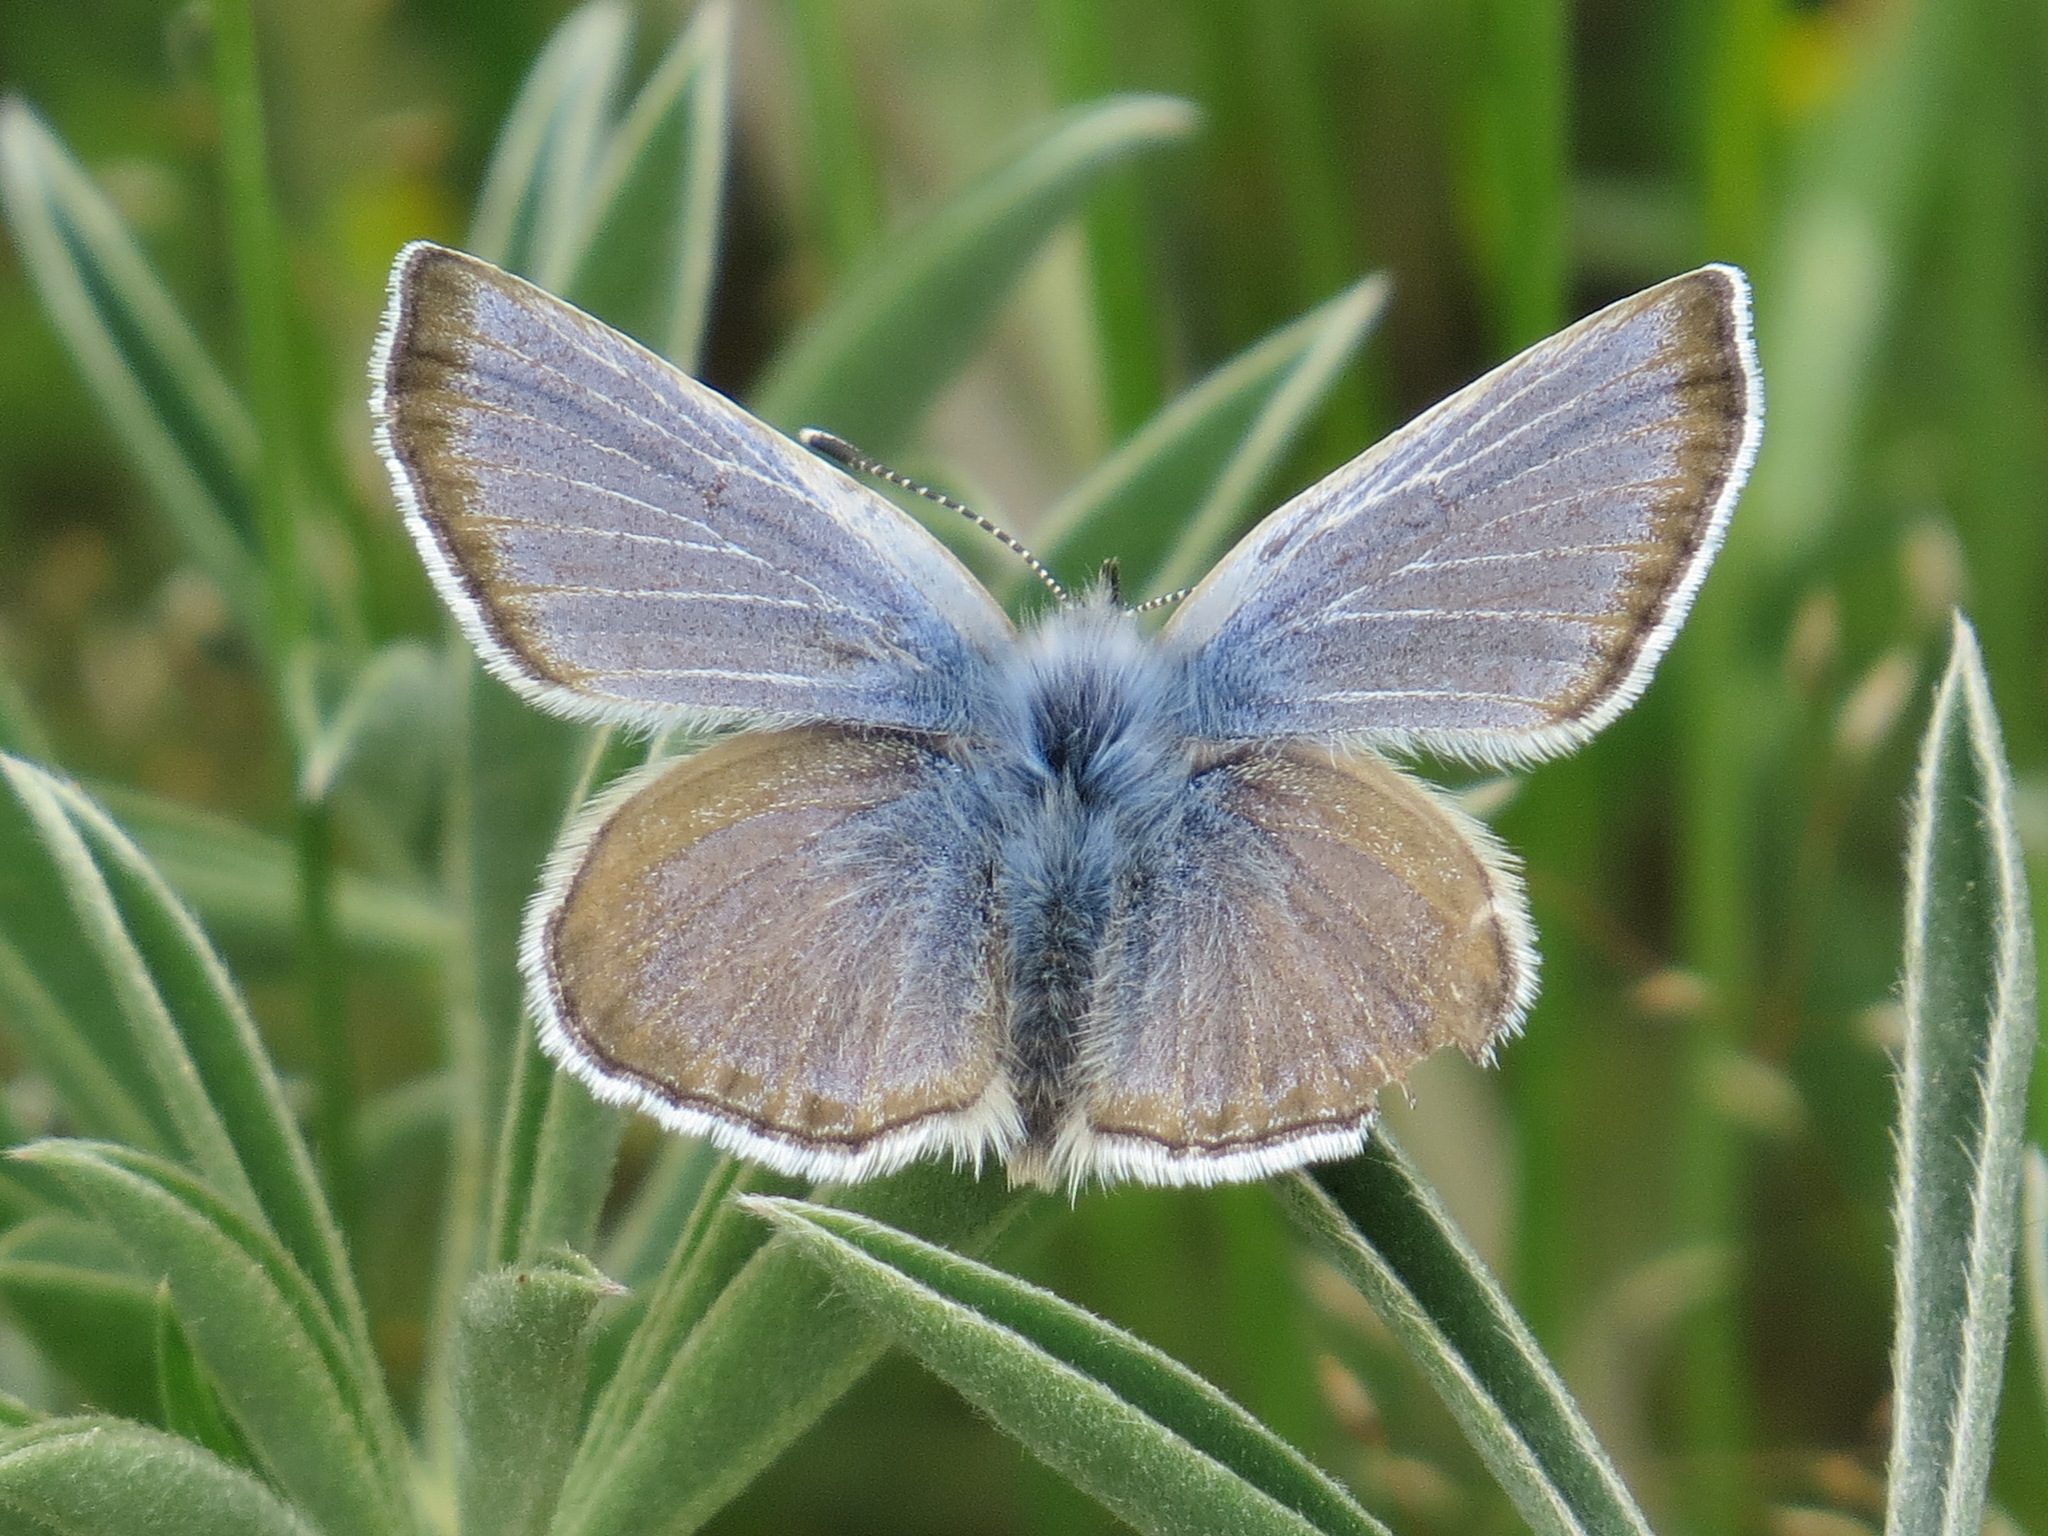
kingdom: Animalia
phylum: Arthropoda
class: Insecta
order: Lepidoptera
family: Lycaenidae
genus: Icaricia
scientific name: Icaricia icarioides
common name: Boisduval's blue
